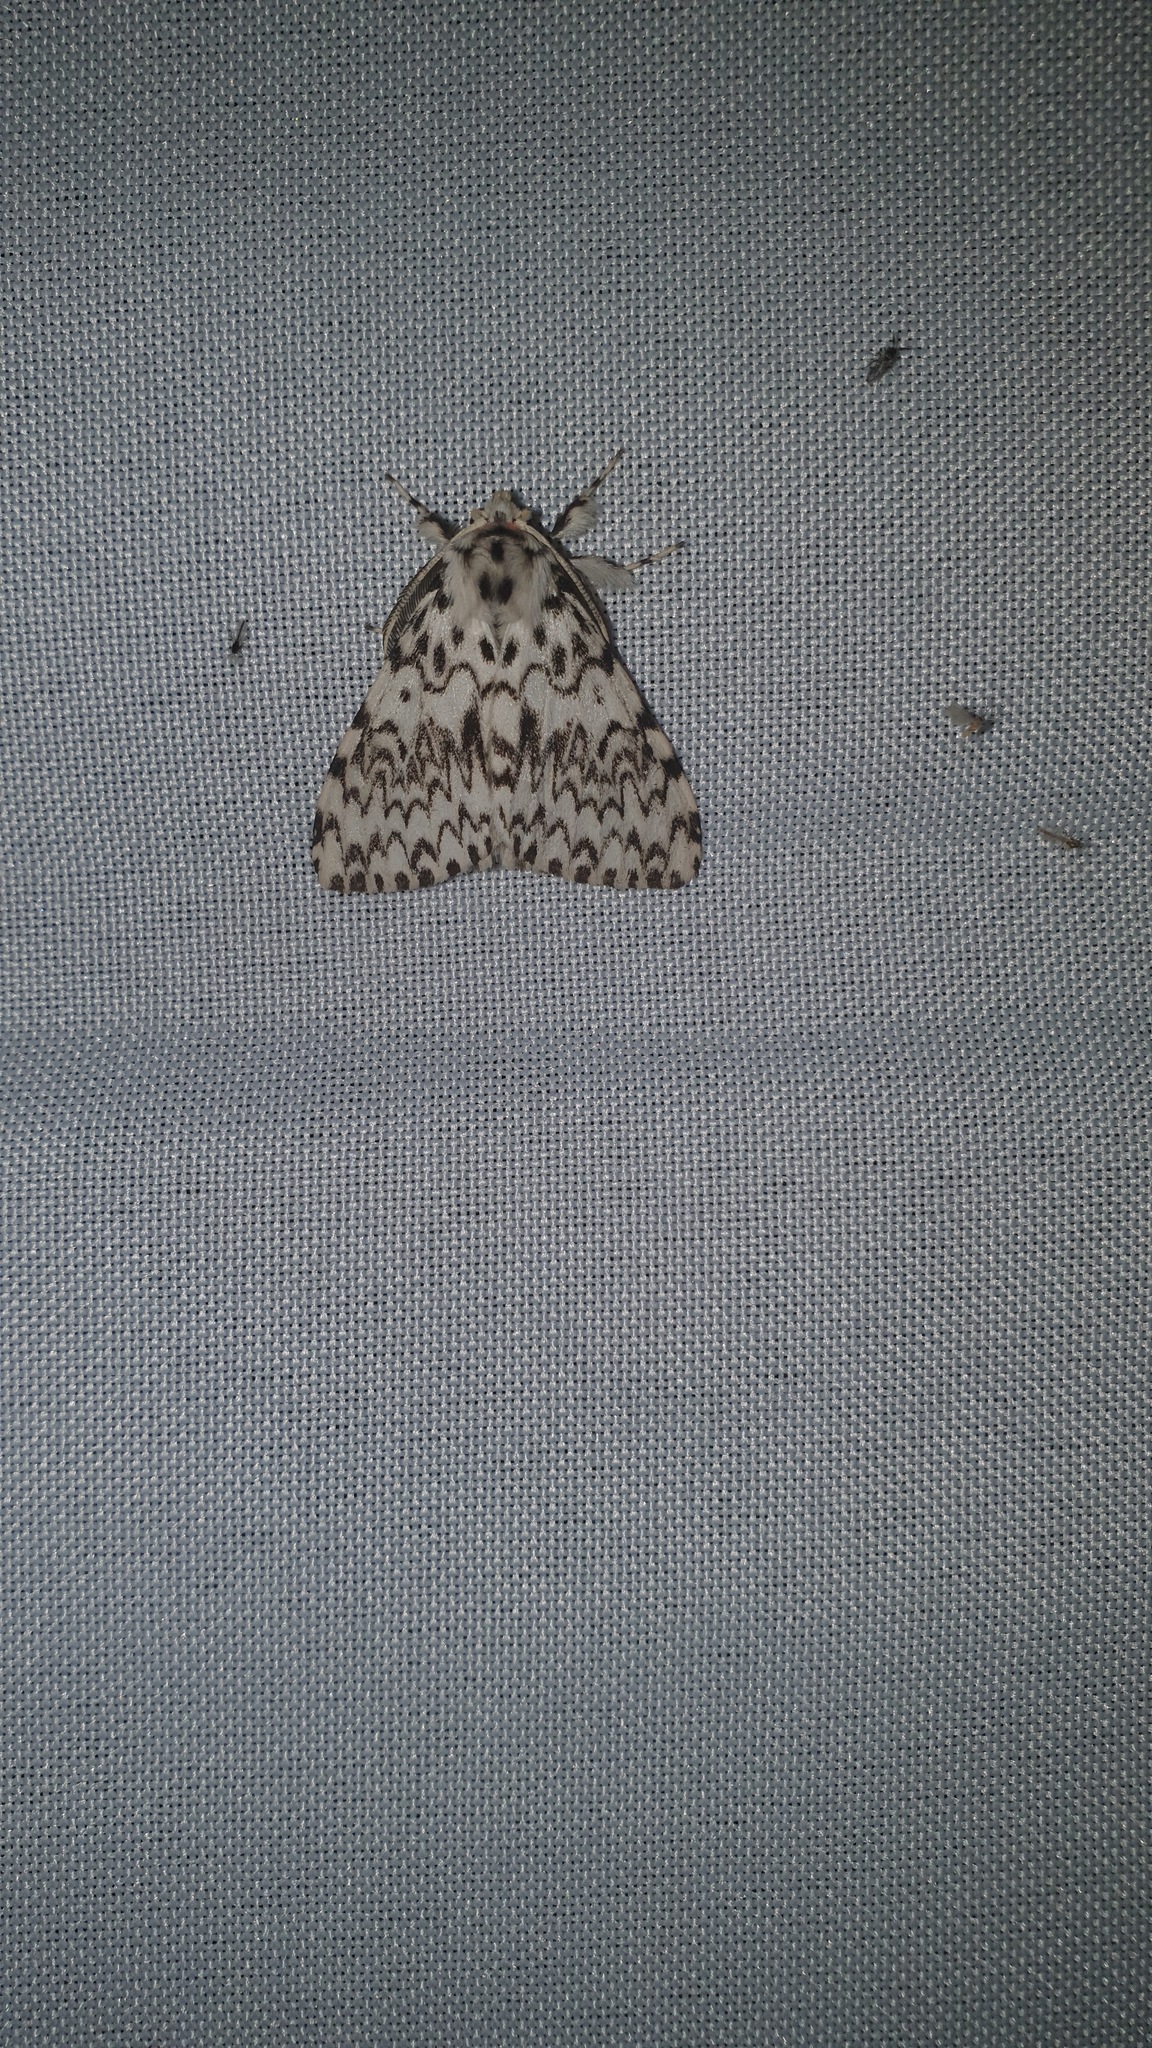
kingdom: Animalia
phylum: Arthropoda
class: Insecta
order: Lepidoptera
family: Erebidae
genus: Lymantria
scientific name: Lymantria monacha
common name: Black arches
